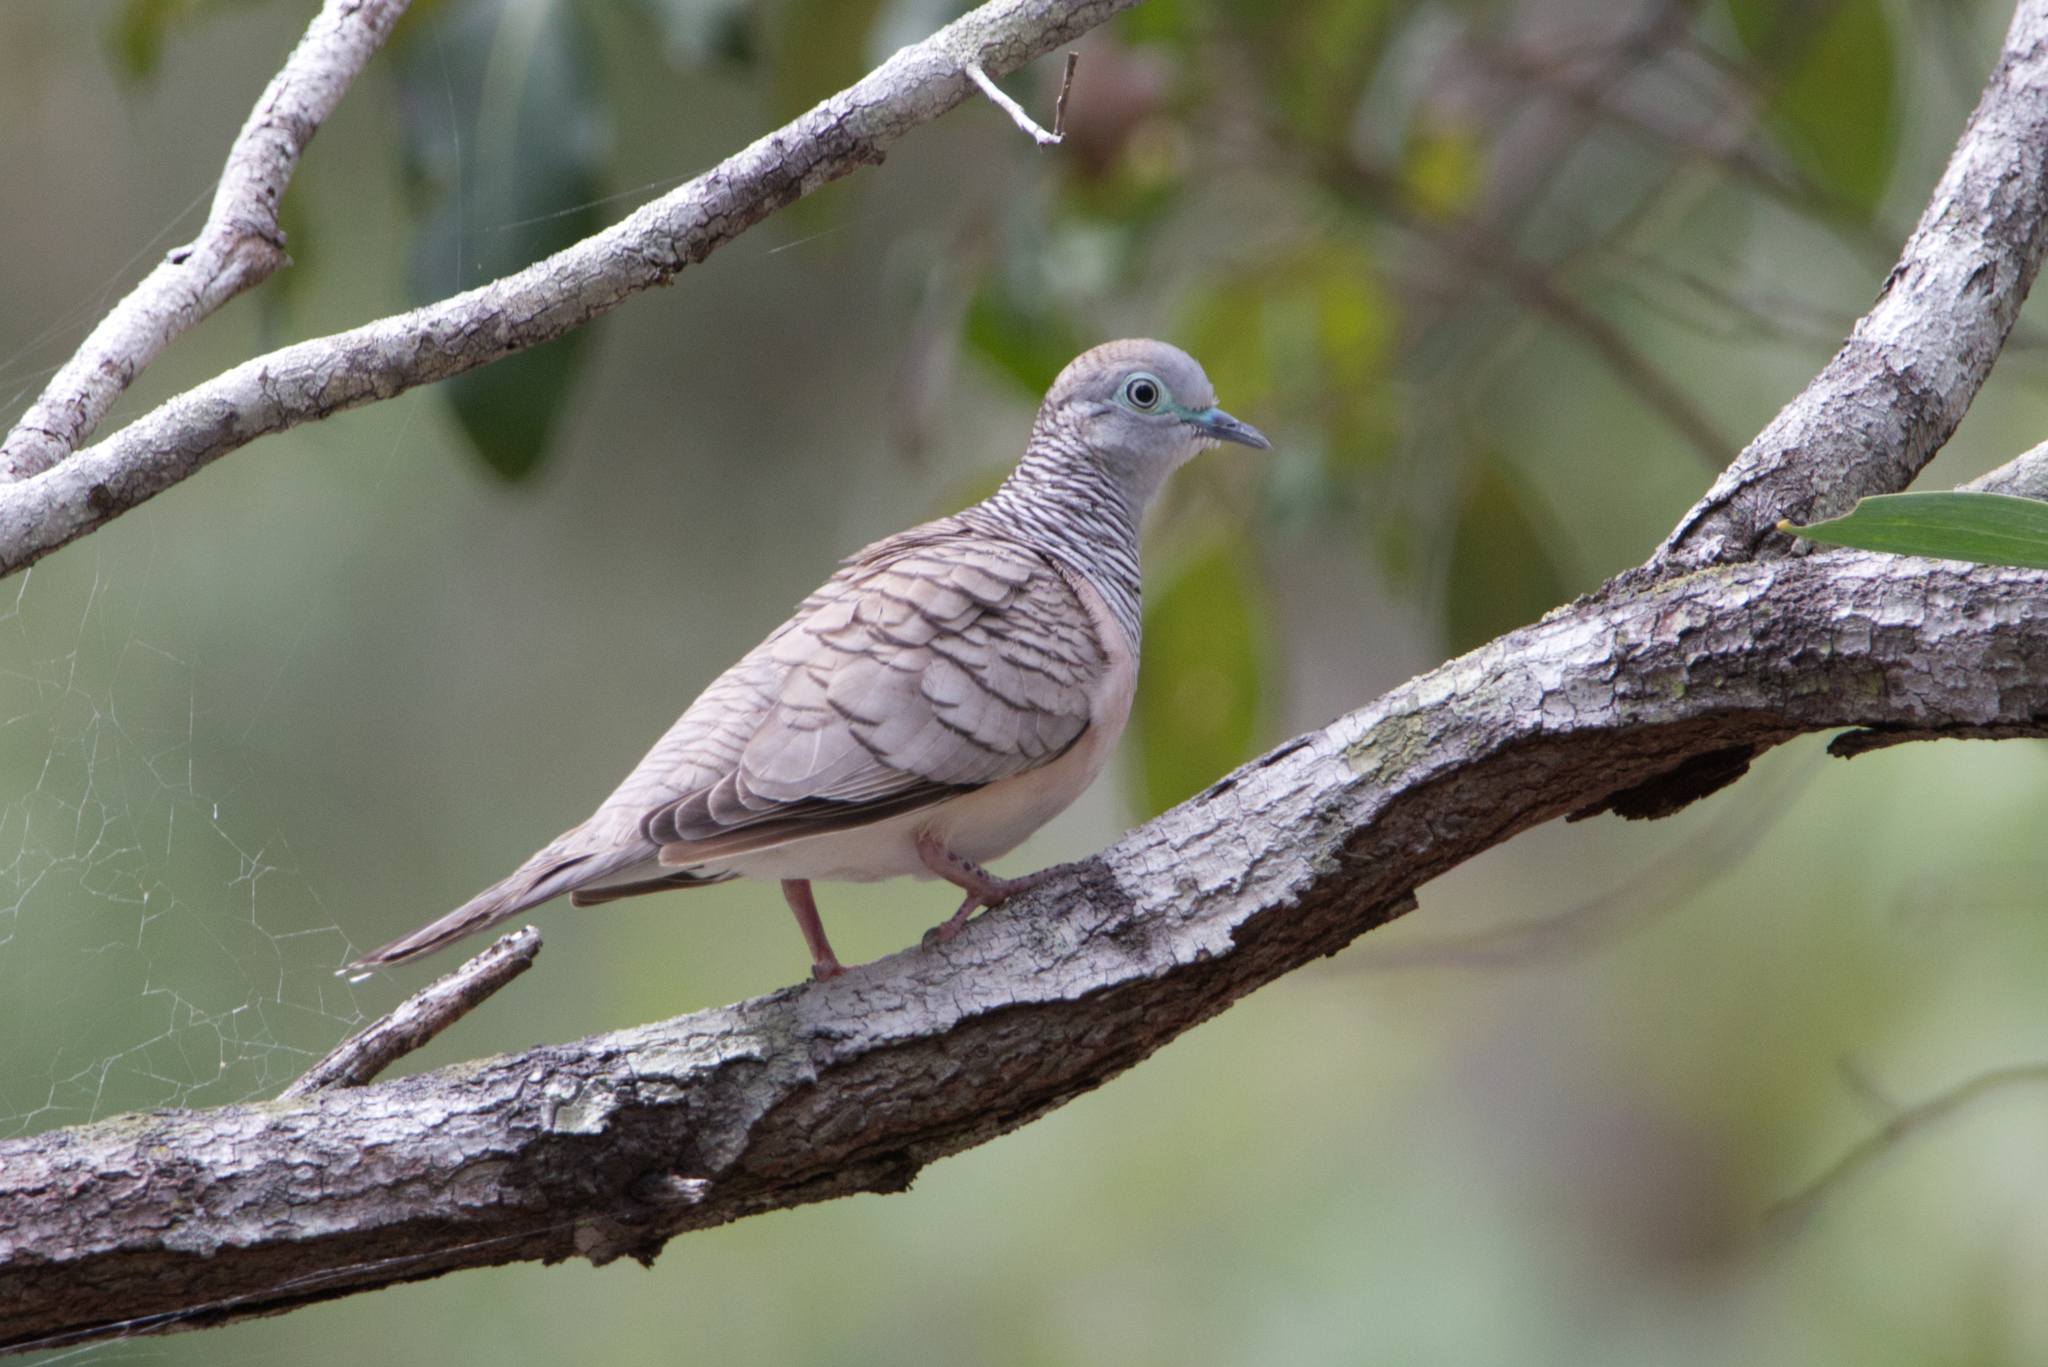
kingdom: Animalia
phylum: Chordata
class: Aves
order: Columbiformes
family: Columbidae
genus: Geopelia
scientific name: Geopelia placida
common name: Peaceful dove
